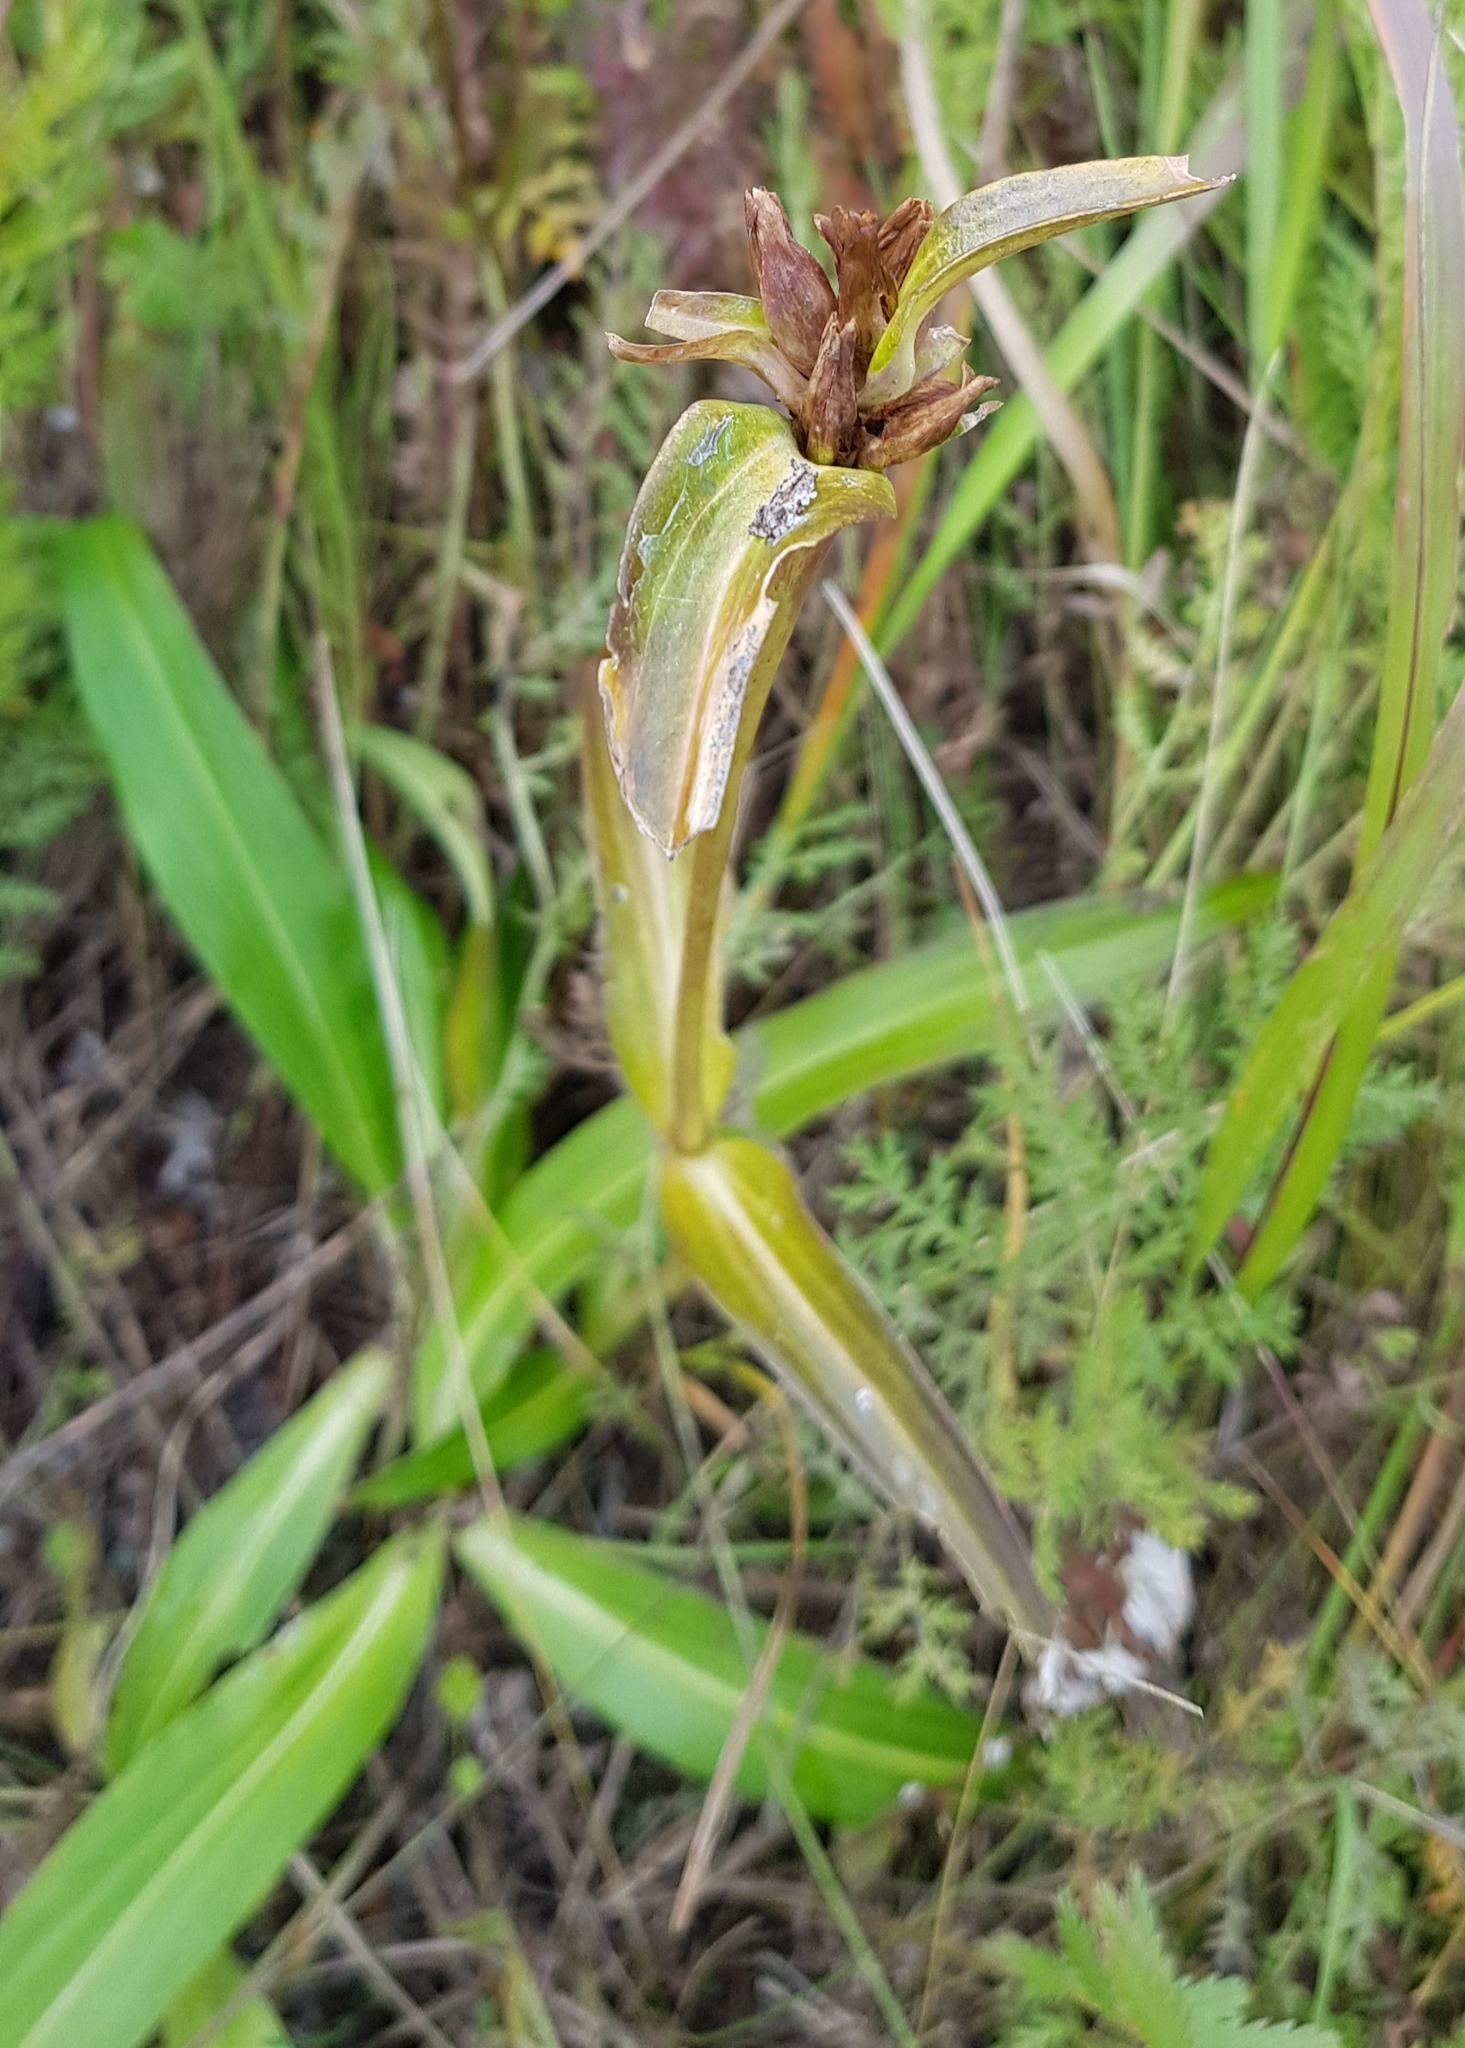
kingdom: Plantae
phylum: Tracheophyta
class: Magnoliopsida
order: Gentianales
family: Gentianaceae
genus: Gentiana
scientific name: Gentiana macrophylla
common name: Large-leaf gentian
